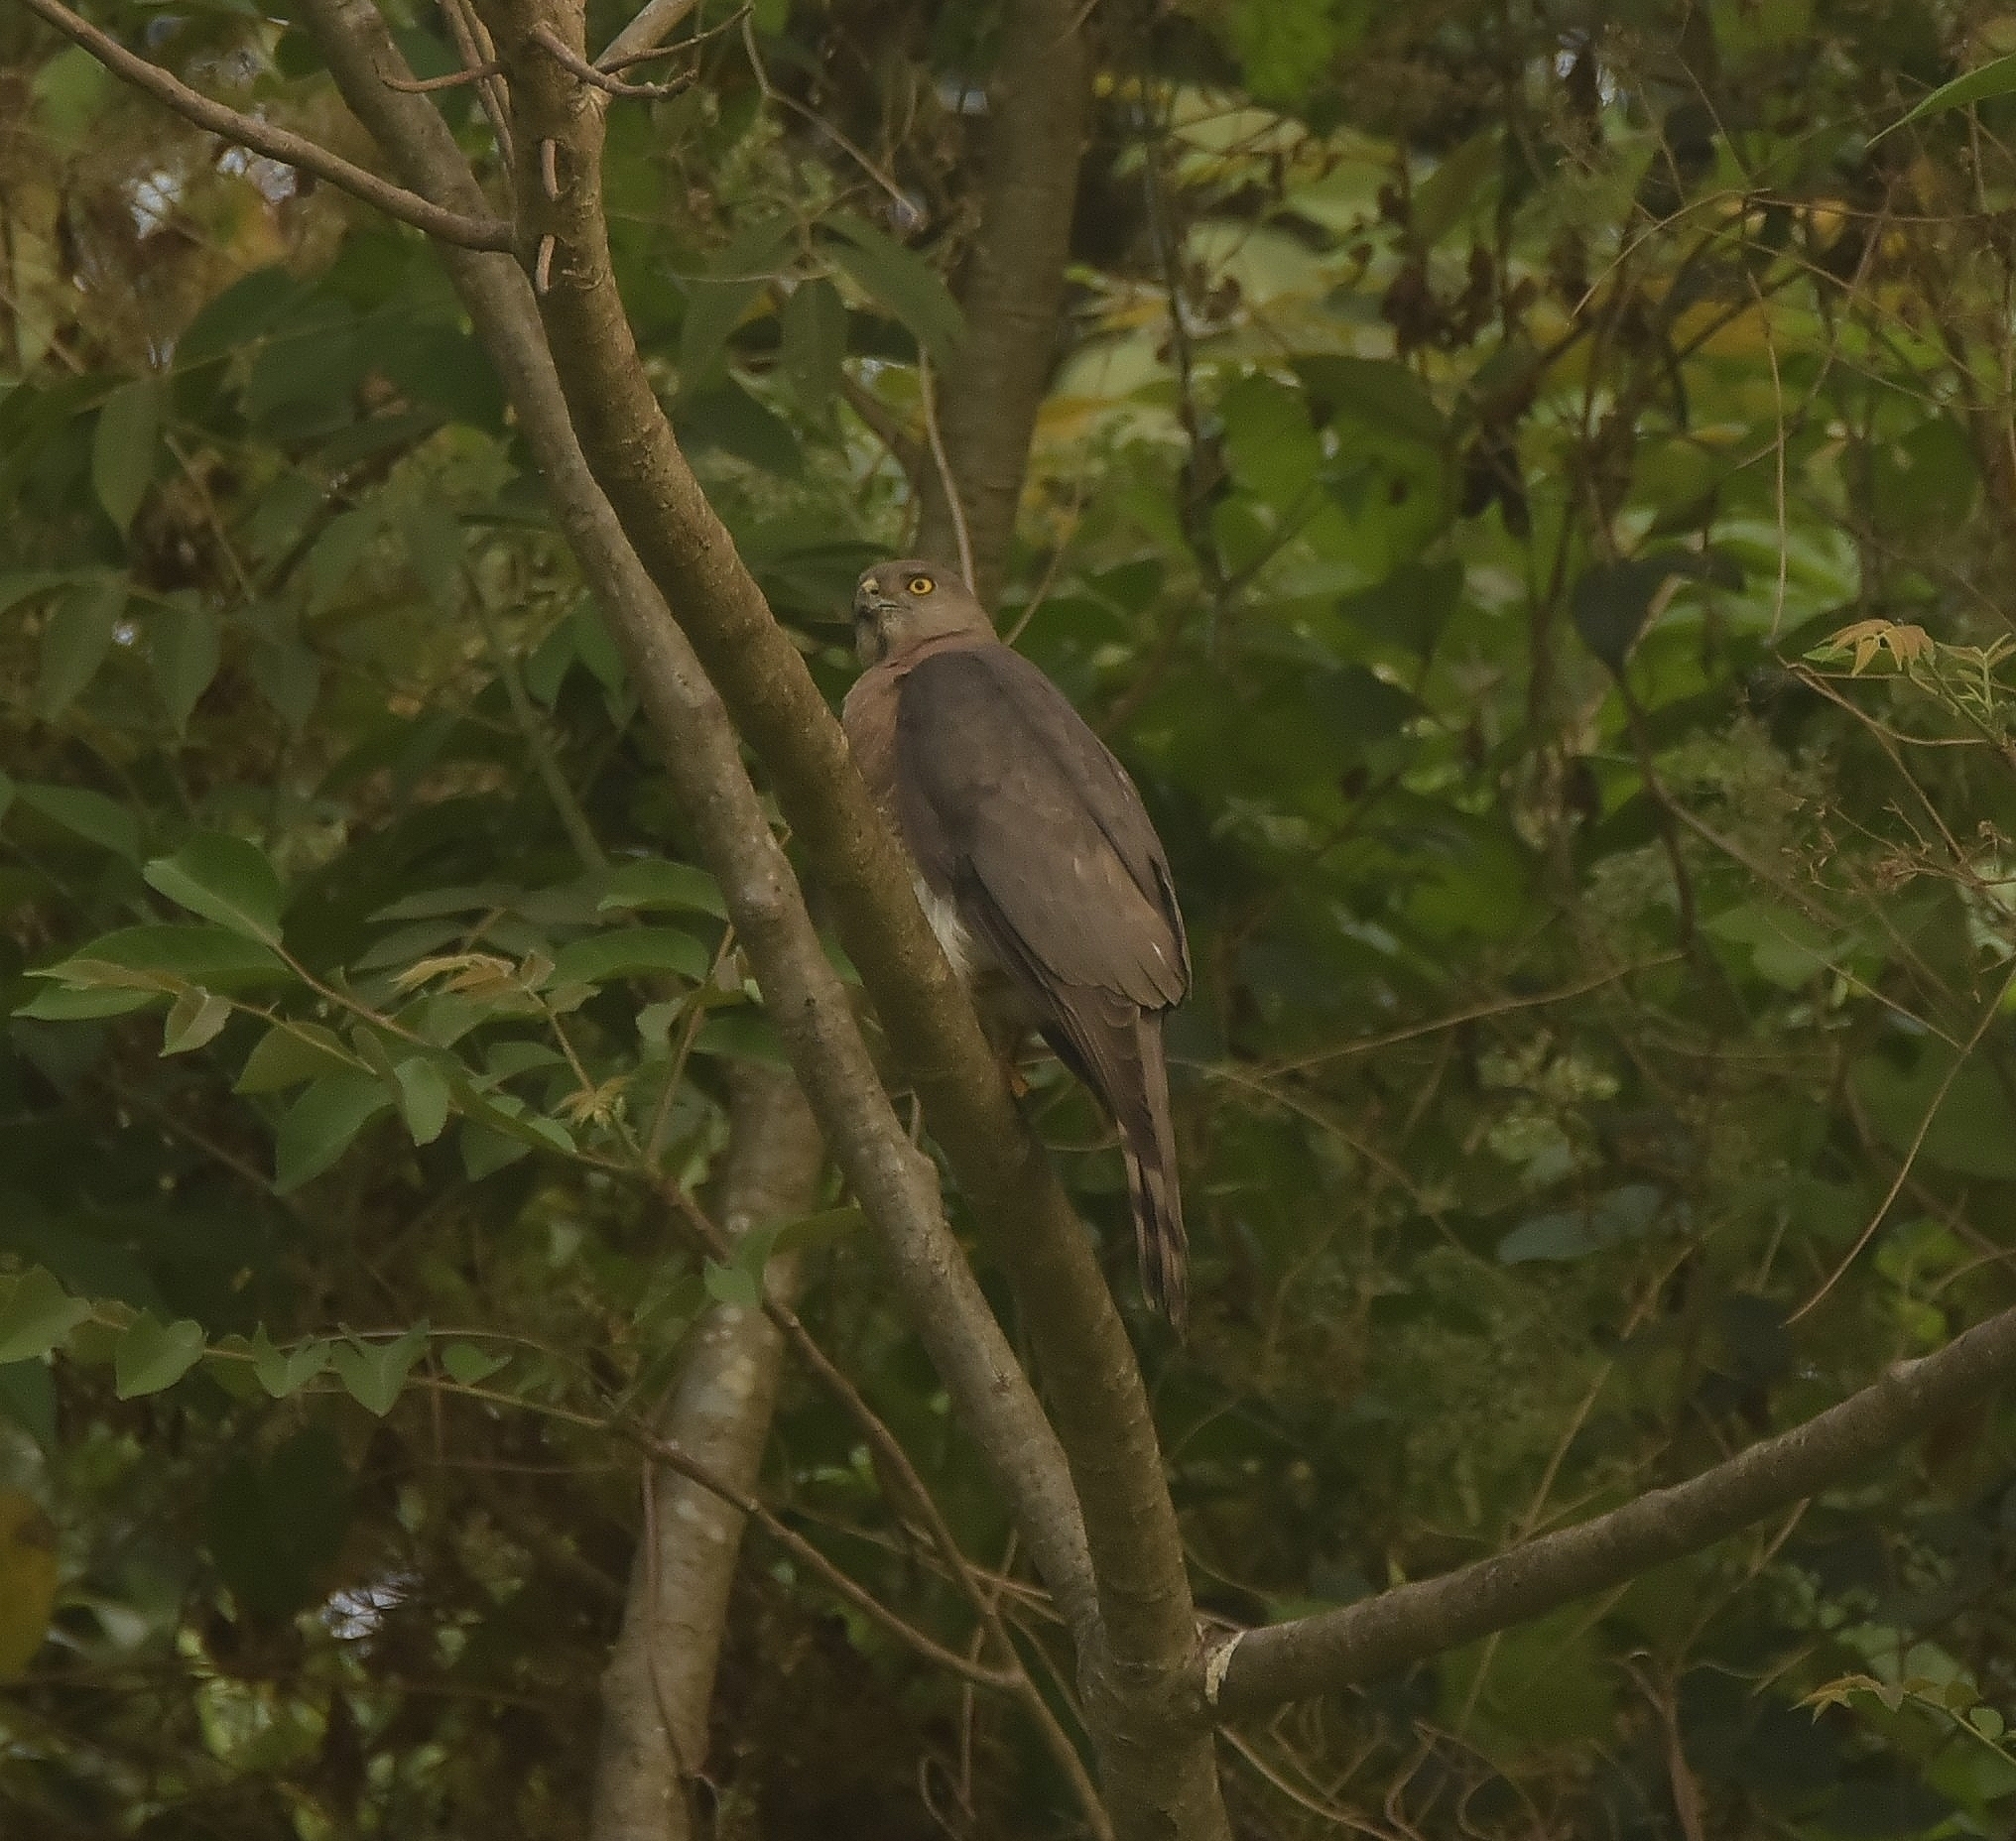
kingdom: Animalia
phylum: Chordata
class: Aves
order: Accipitriformes
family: Accipitridae
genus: Accipiter
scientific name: Accipiter badius
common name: Shikra
